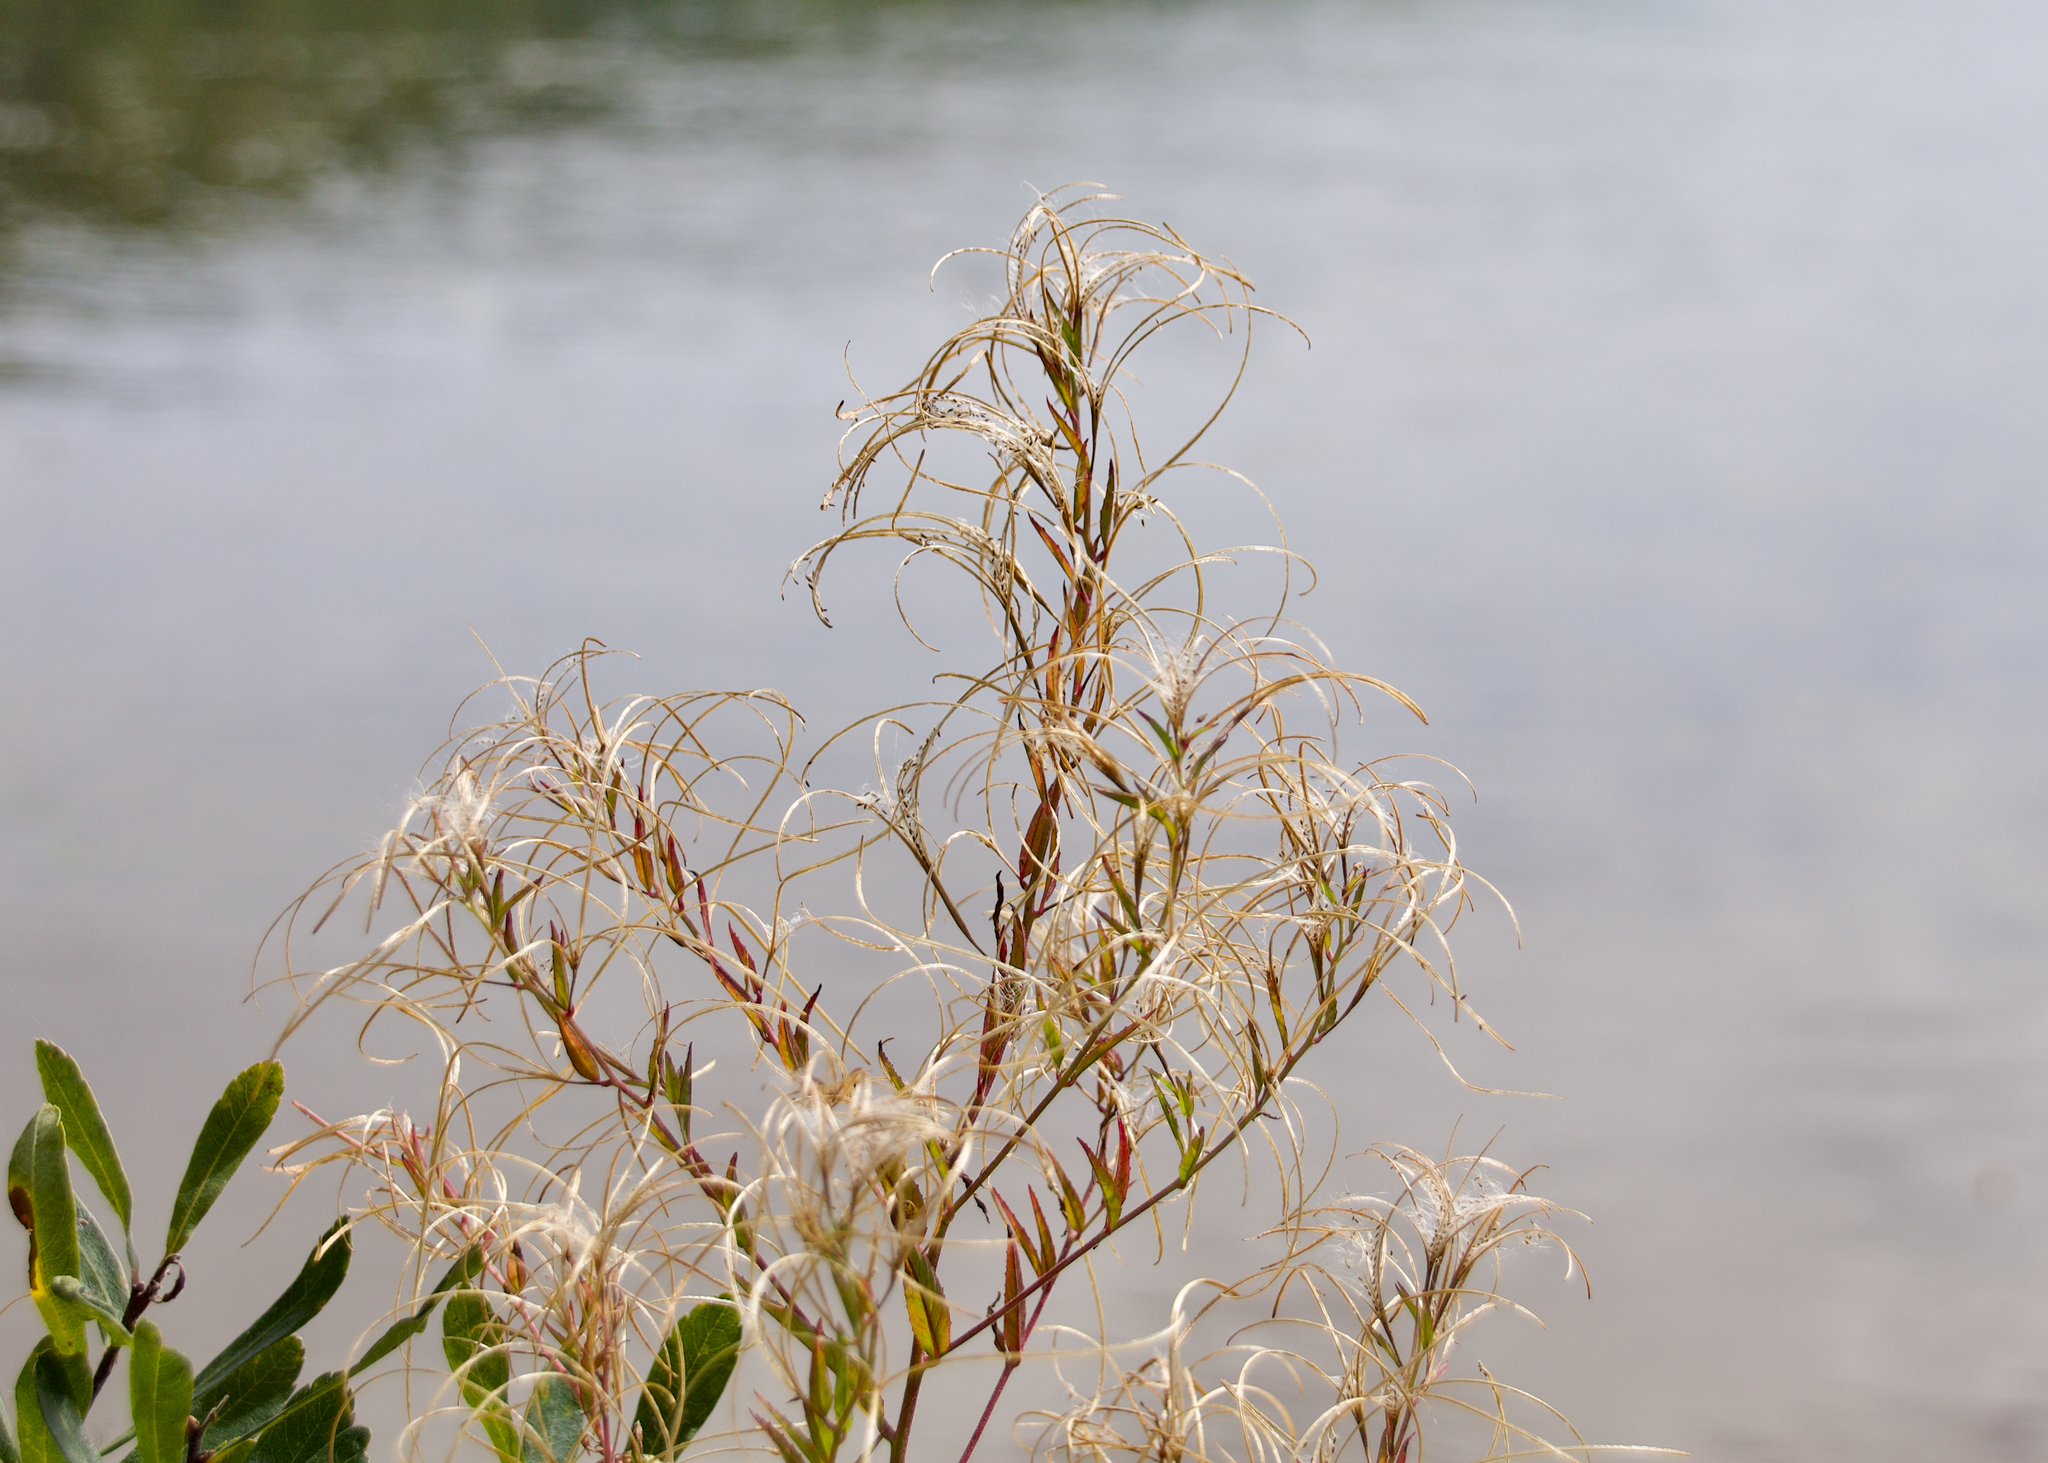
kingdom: Plantae
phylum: Tracheophyta
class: Magnoliopsida
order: Myrtales
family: Onagraceae
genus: Chamaenerion
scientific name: Chamaenerion angustifolium
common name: Fireweed
